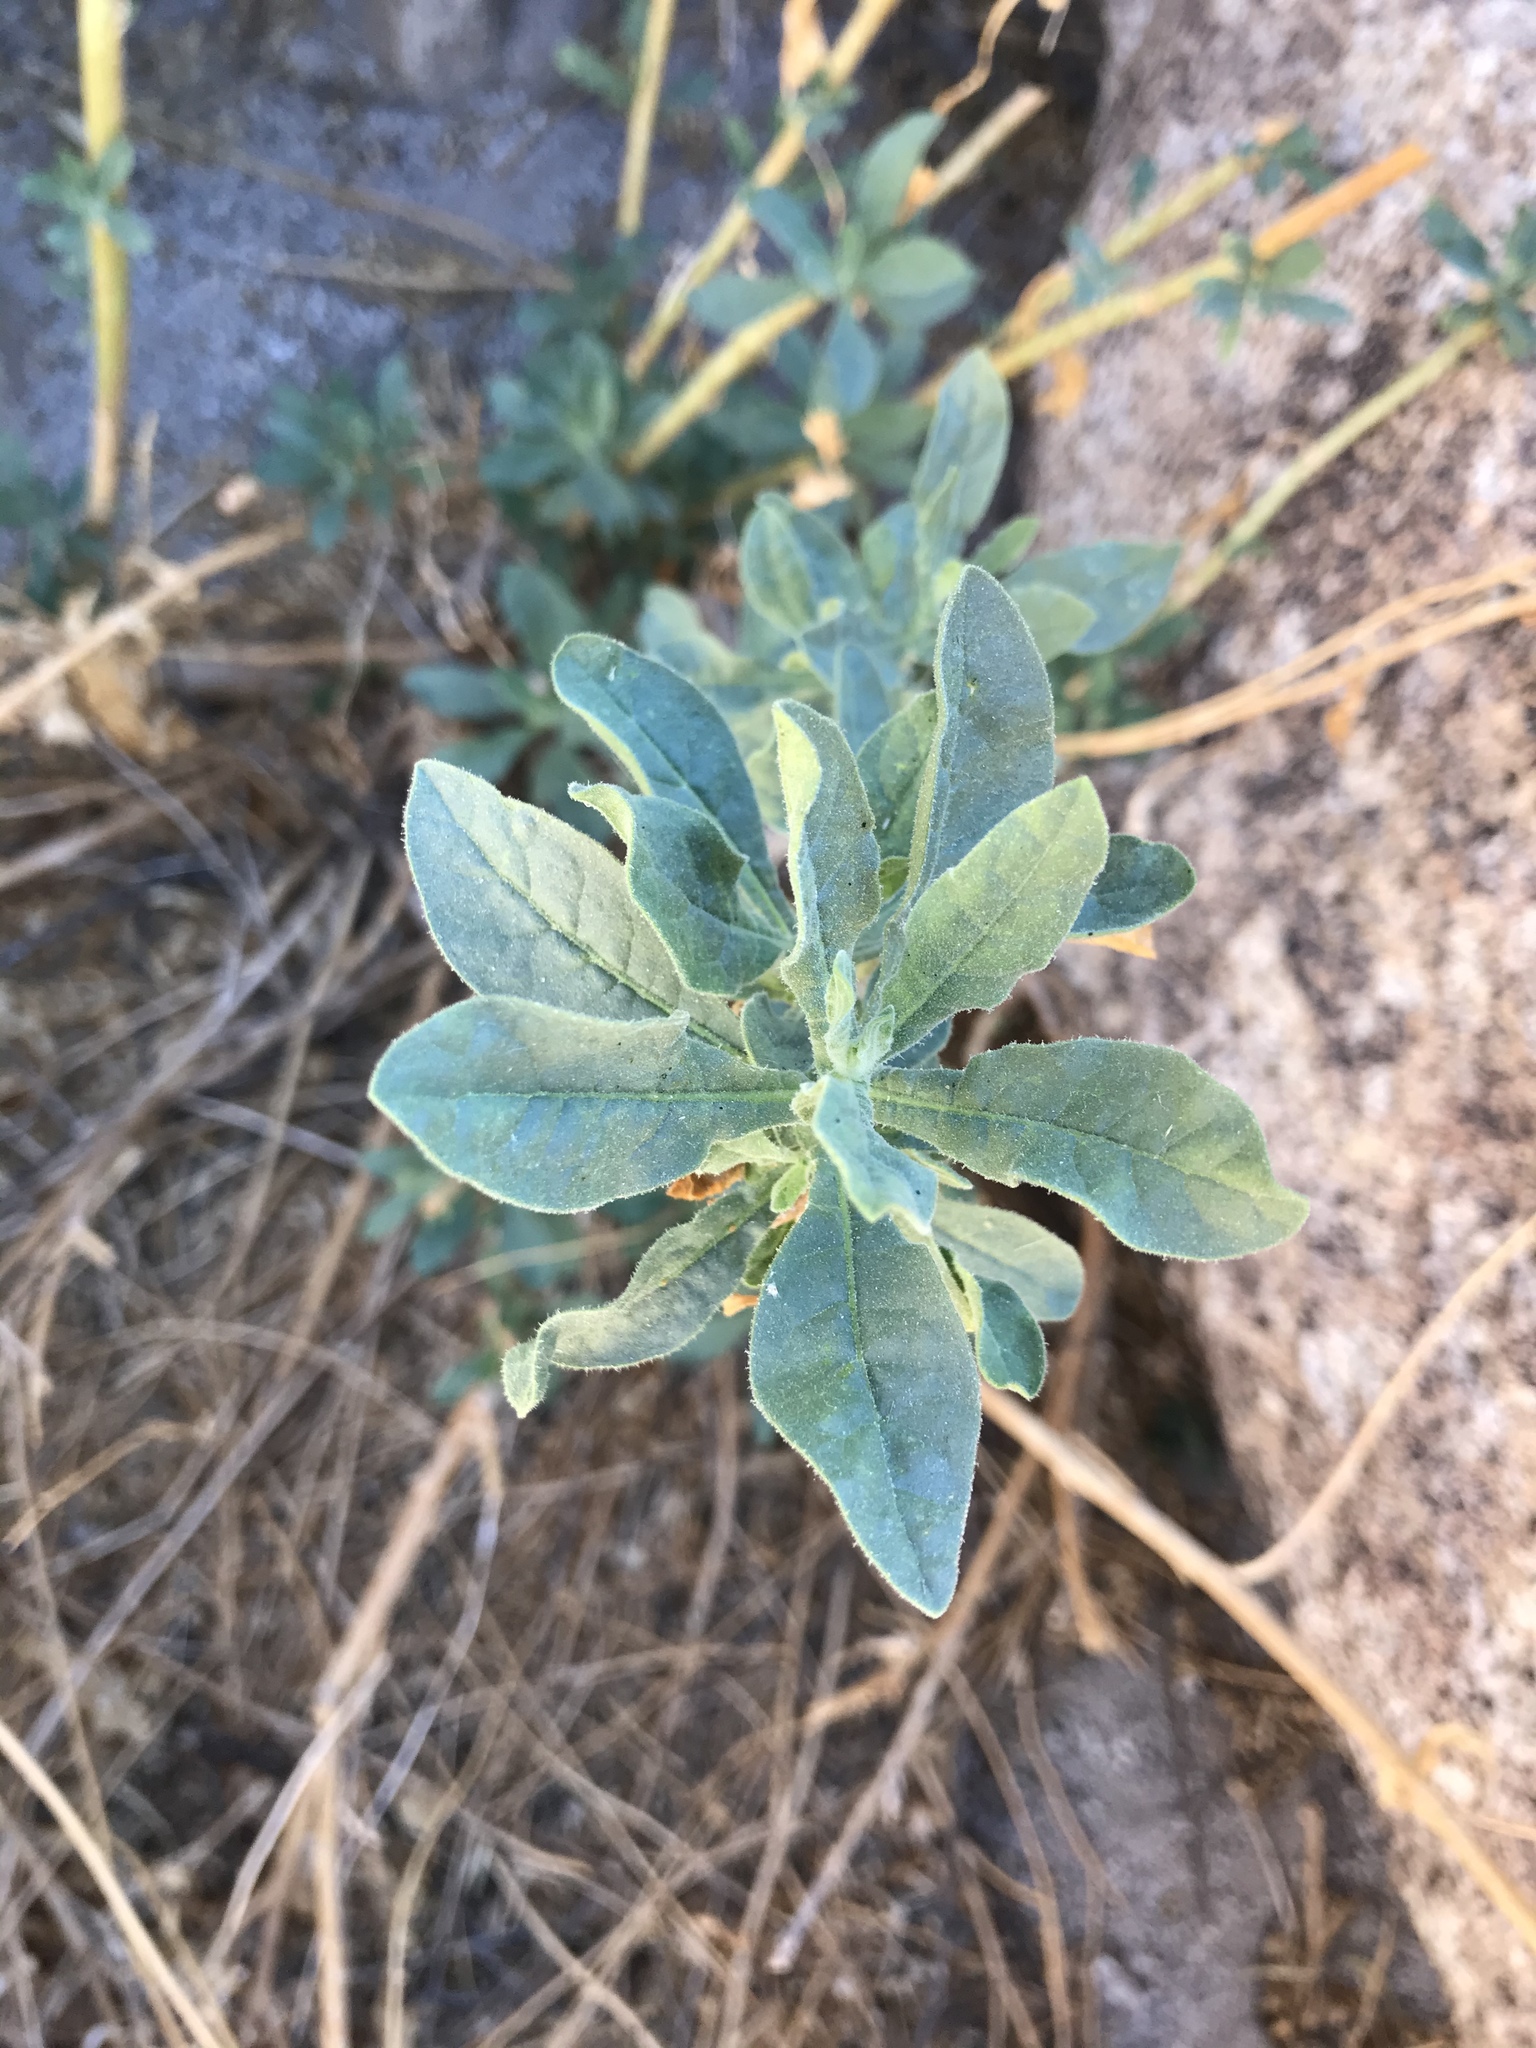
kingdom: Plantae
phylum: Tracheophyta
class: Magnoliopsida
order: Solanales
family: Solanaceae
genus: Nicotiana
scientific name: Nicotiana obtusifolia
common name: Desert tobacco
